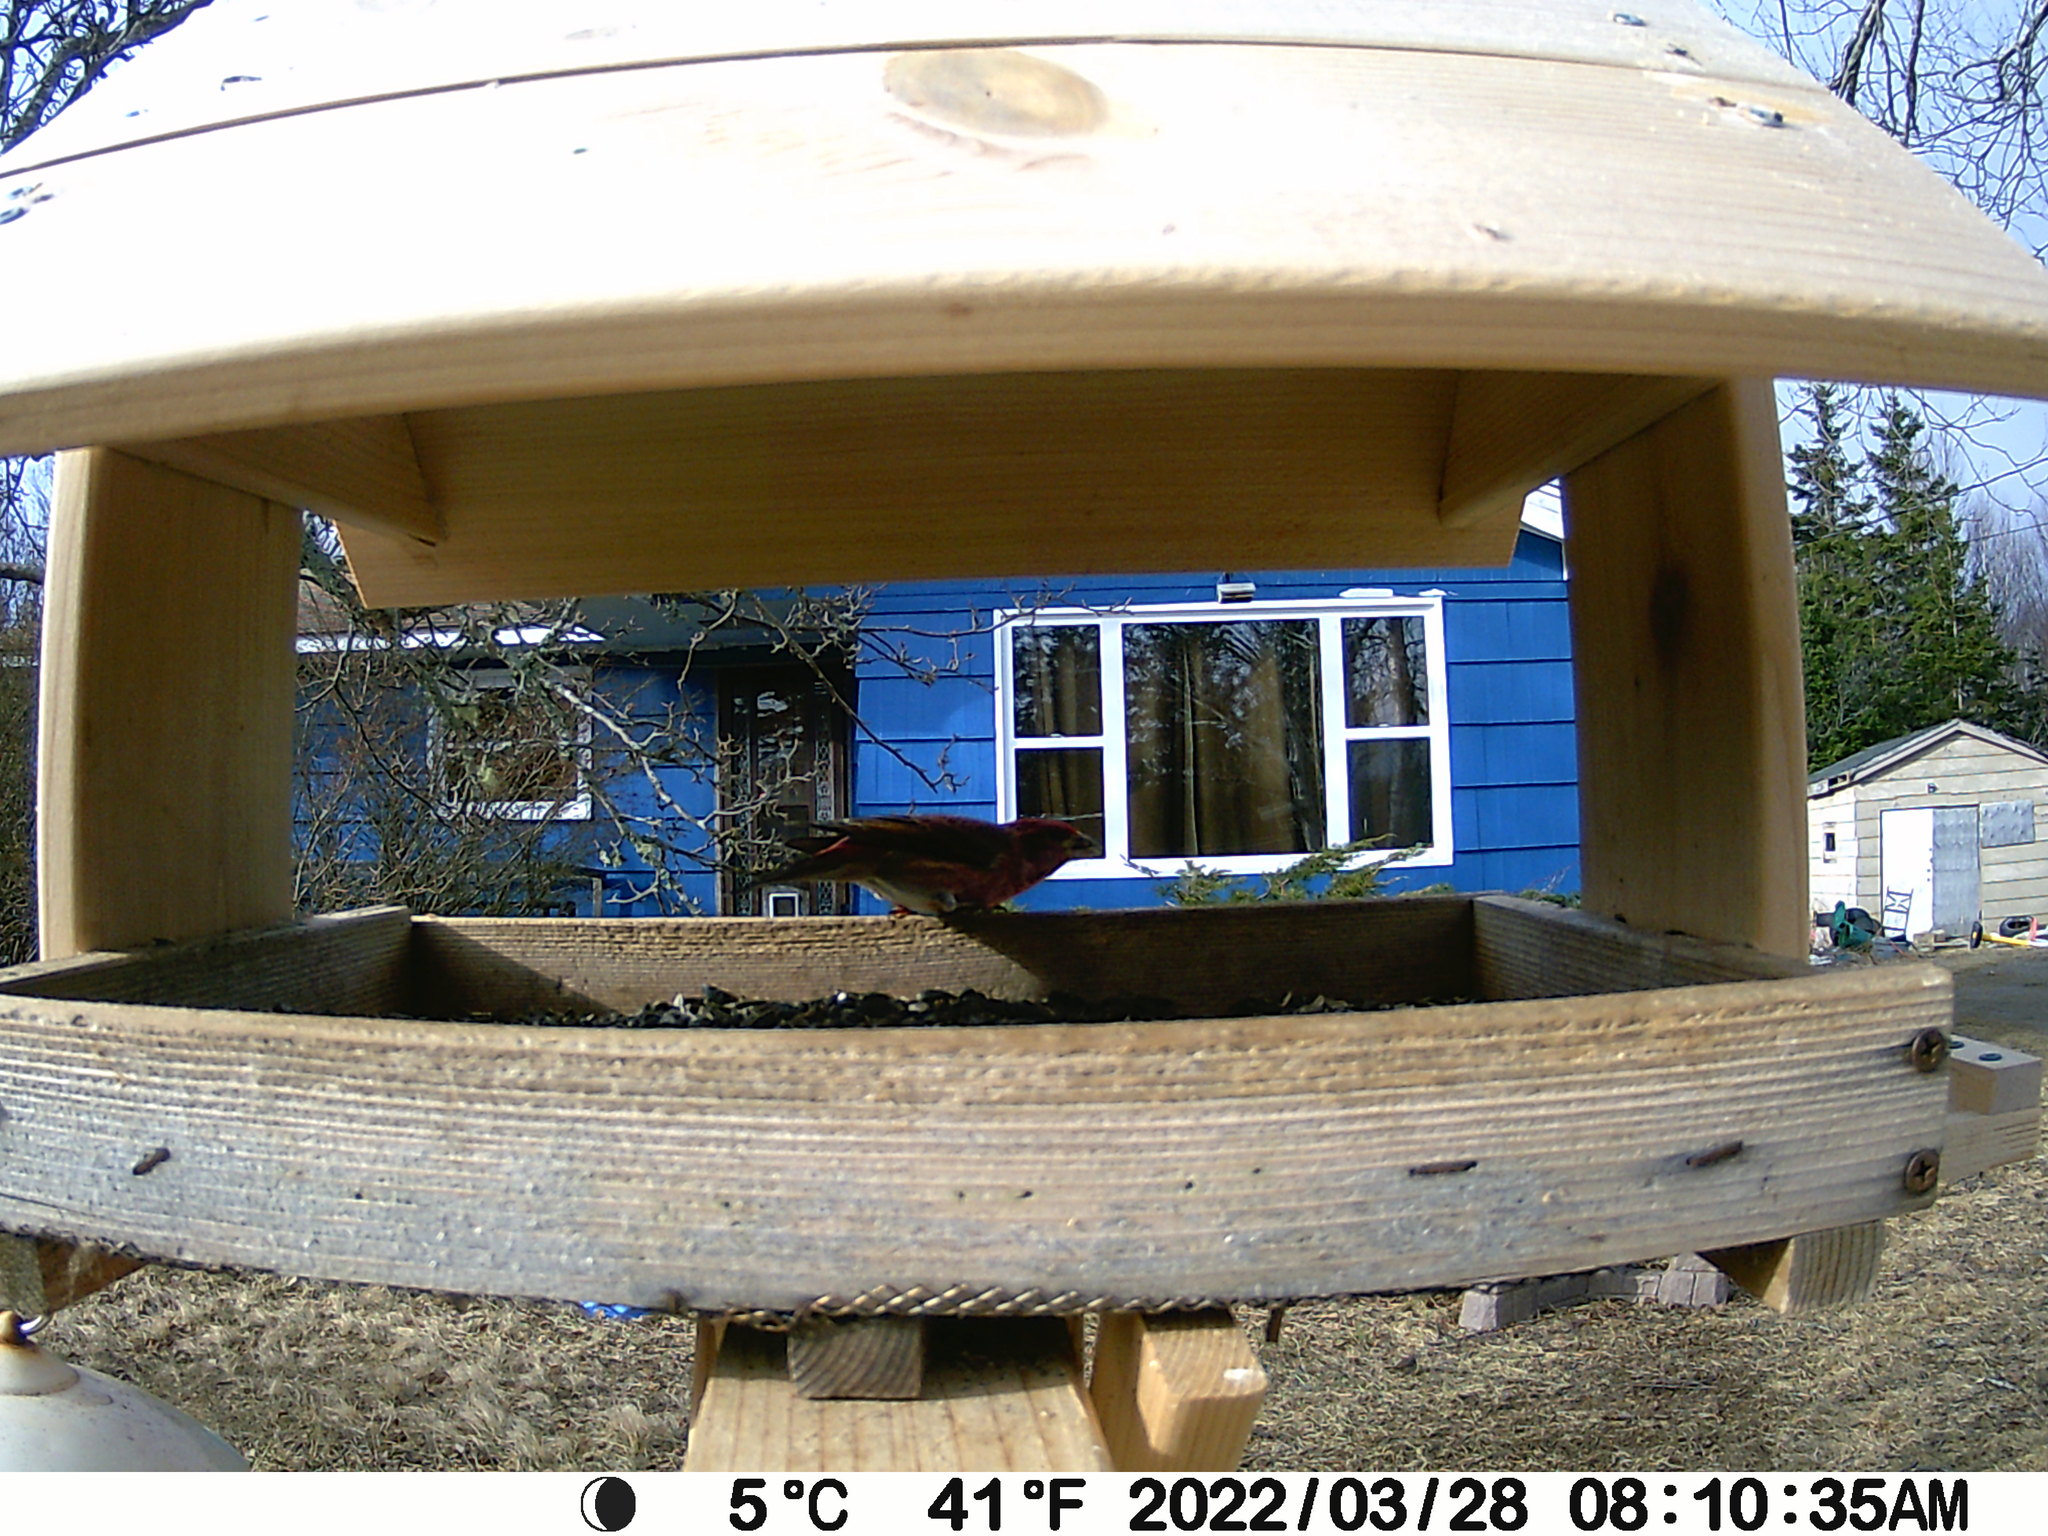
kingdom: Animalia
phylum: Chordata
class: Aves
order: Passeriformes
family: Corvidae
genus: Cyanocitta
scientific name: Cyanocitta cristata
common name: Blue jay
